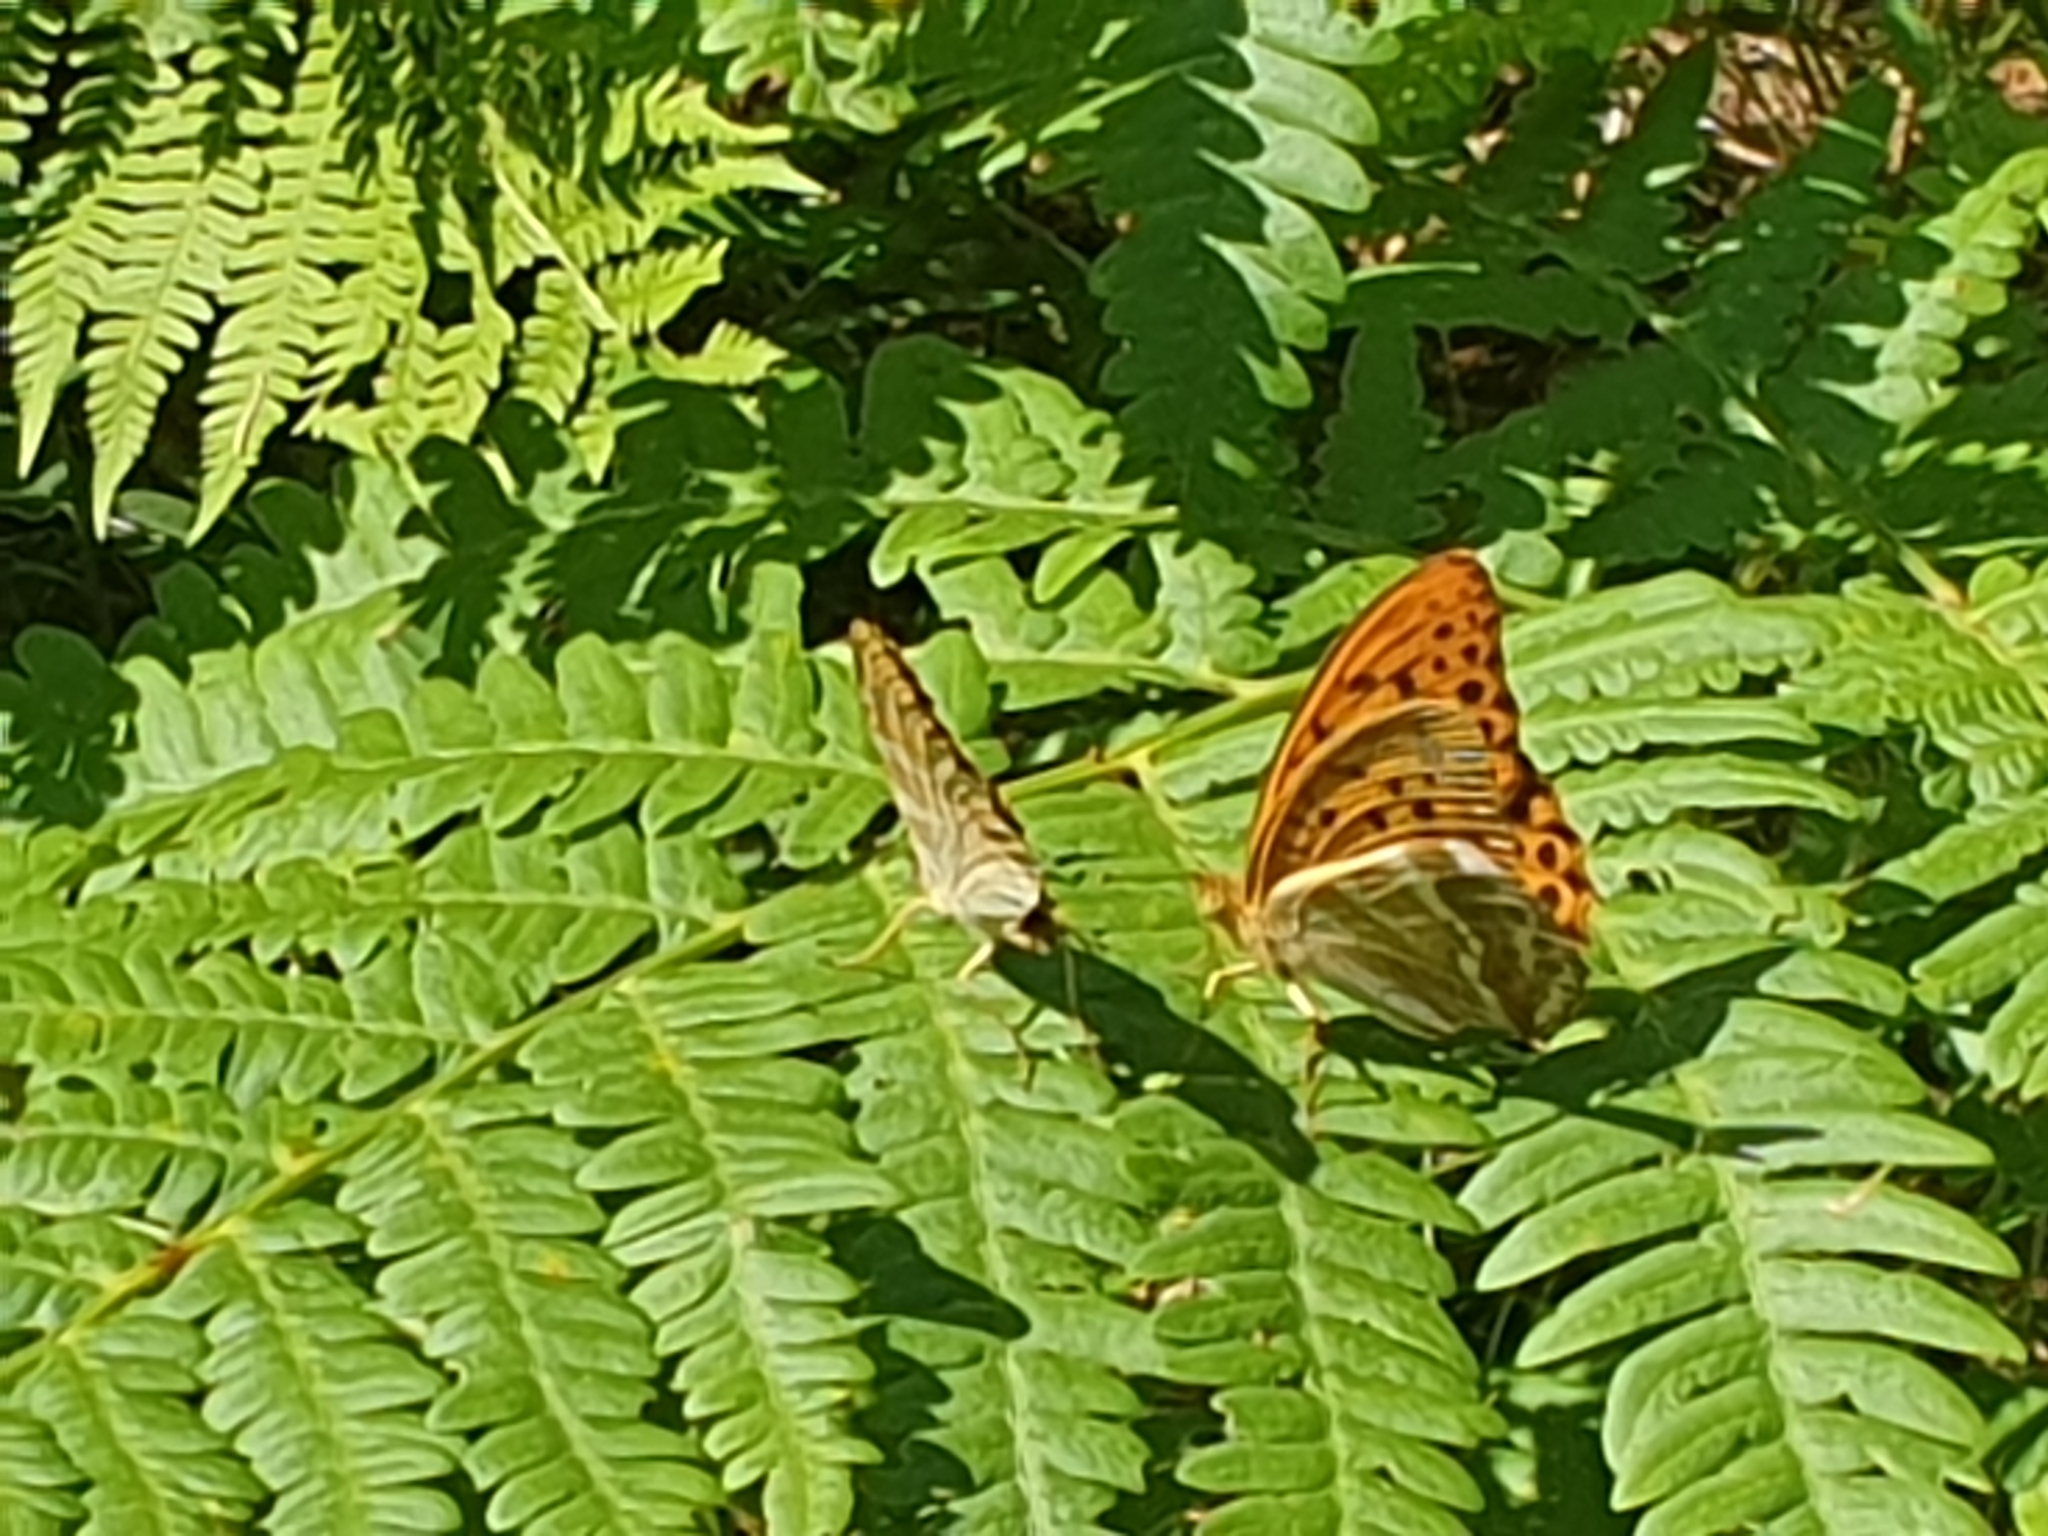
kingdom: Animalia
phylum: Arthropoda
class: Insecta
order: Lepidoptera
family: Nymphalidae
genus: Argynnis
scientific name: Argynnis paphia
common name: Silver-washed fritillary
